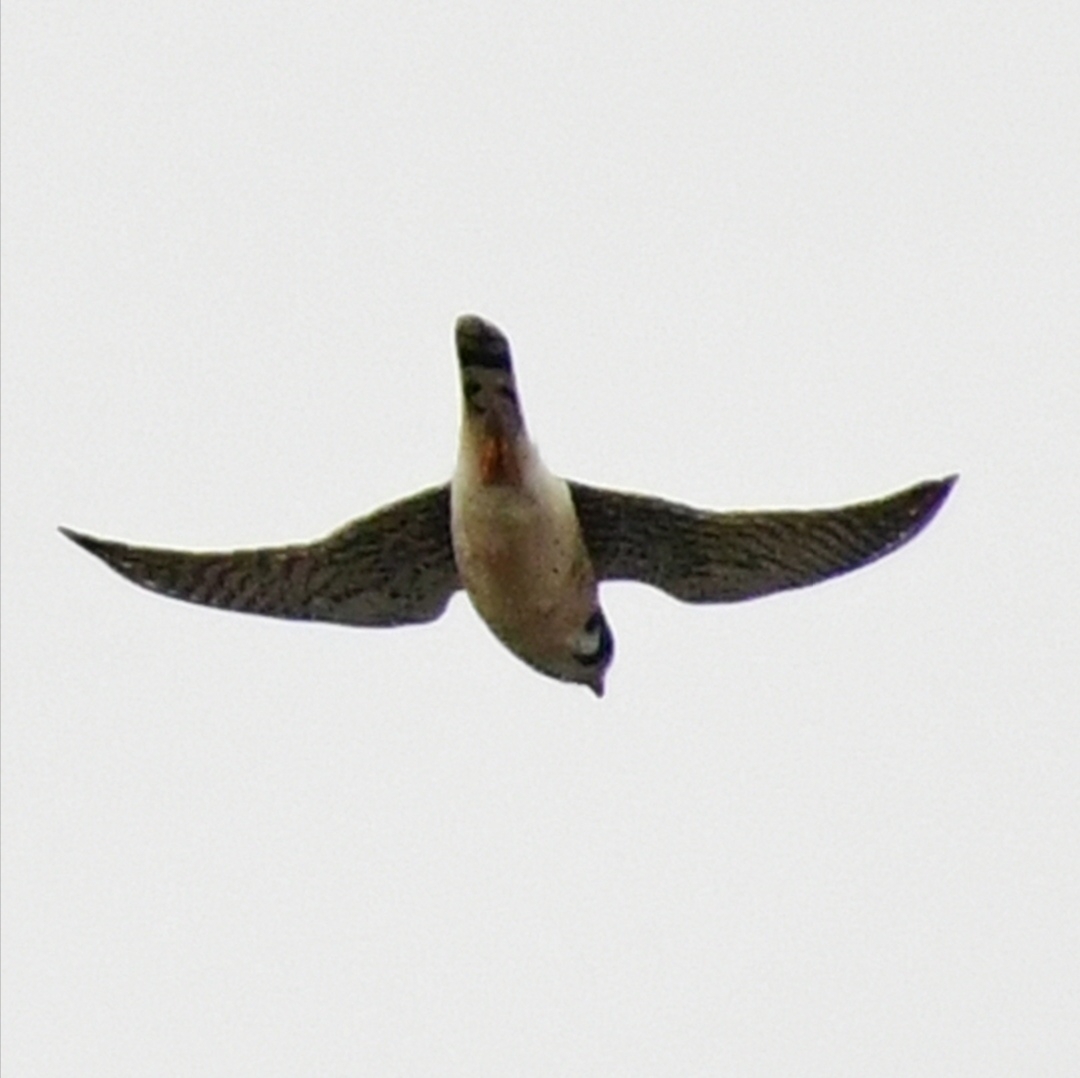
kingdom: Animalia
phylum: Chordata
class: Aves
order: Falconiformes
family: Falconidae
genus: Falco
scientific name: Falco sparverius
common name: American kestrel
